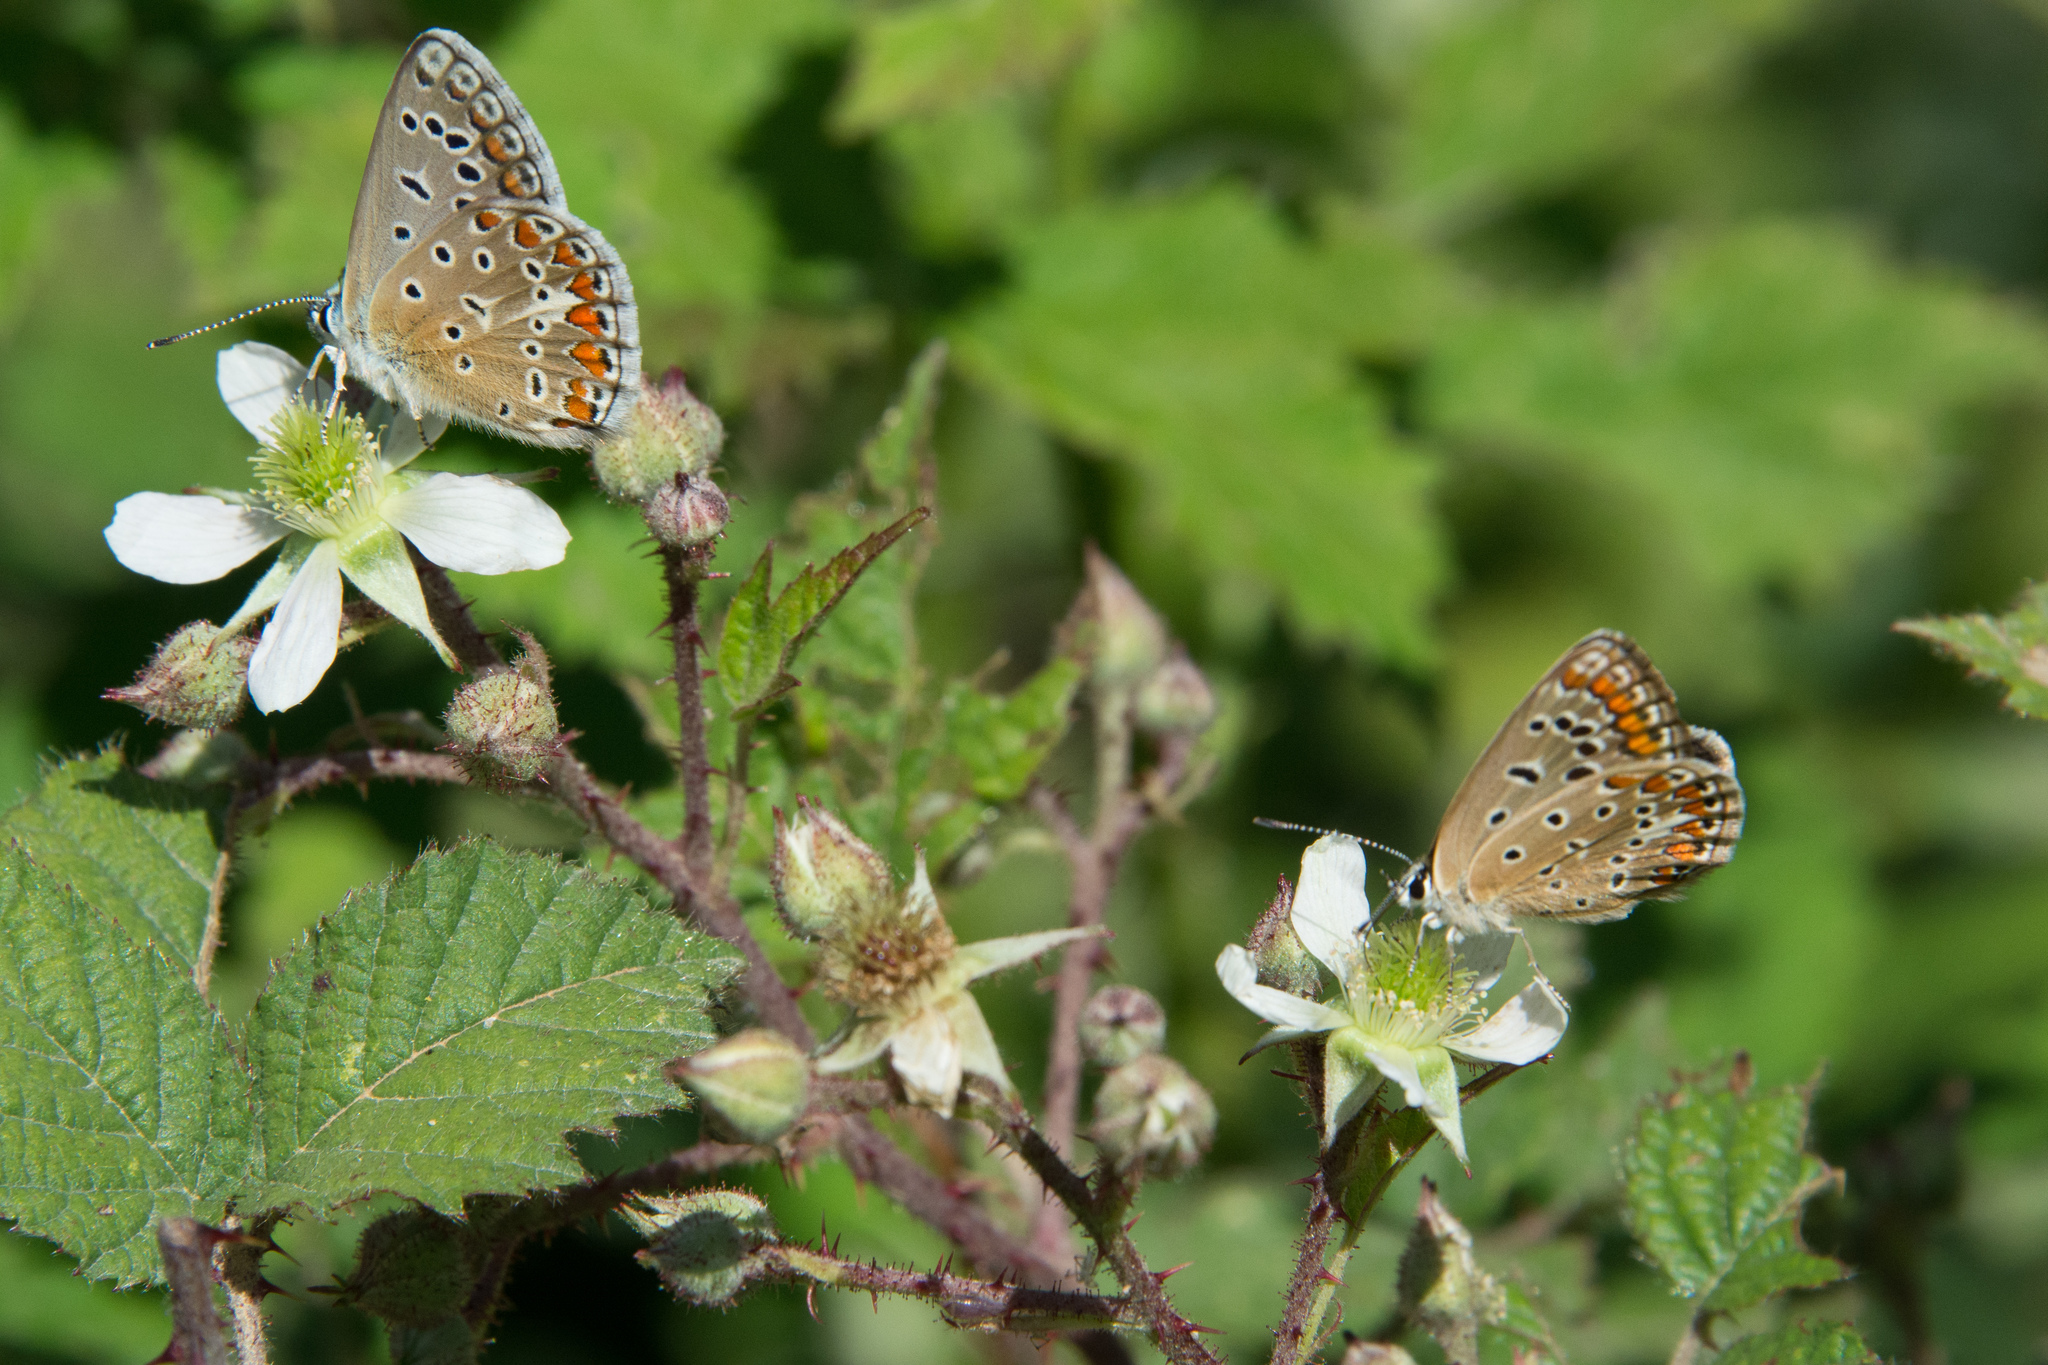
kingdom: Animalia
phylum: Arthropoda
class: Insecta
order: Lepidoptera
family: Lycaenidae
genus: Polyommatus
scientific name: Polyommatus celina
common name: Austaut's blue
